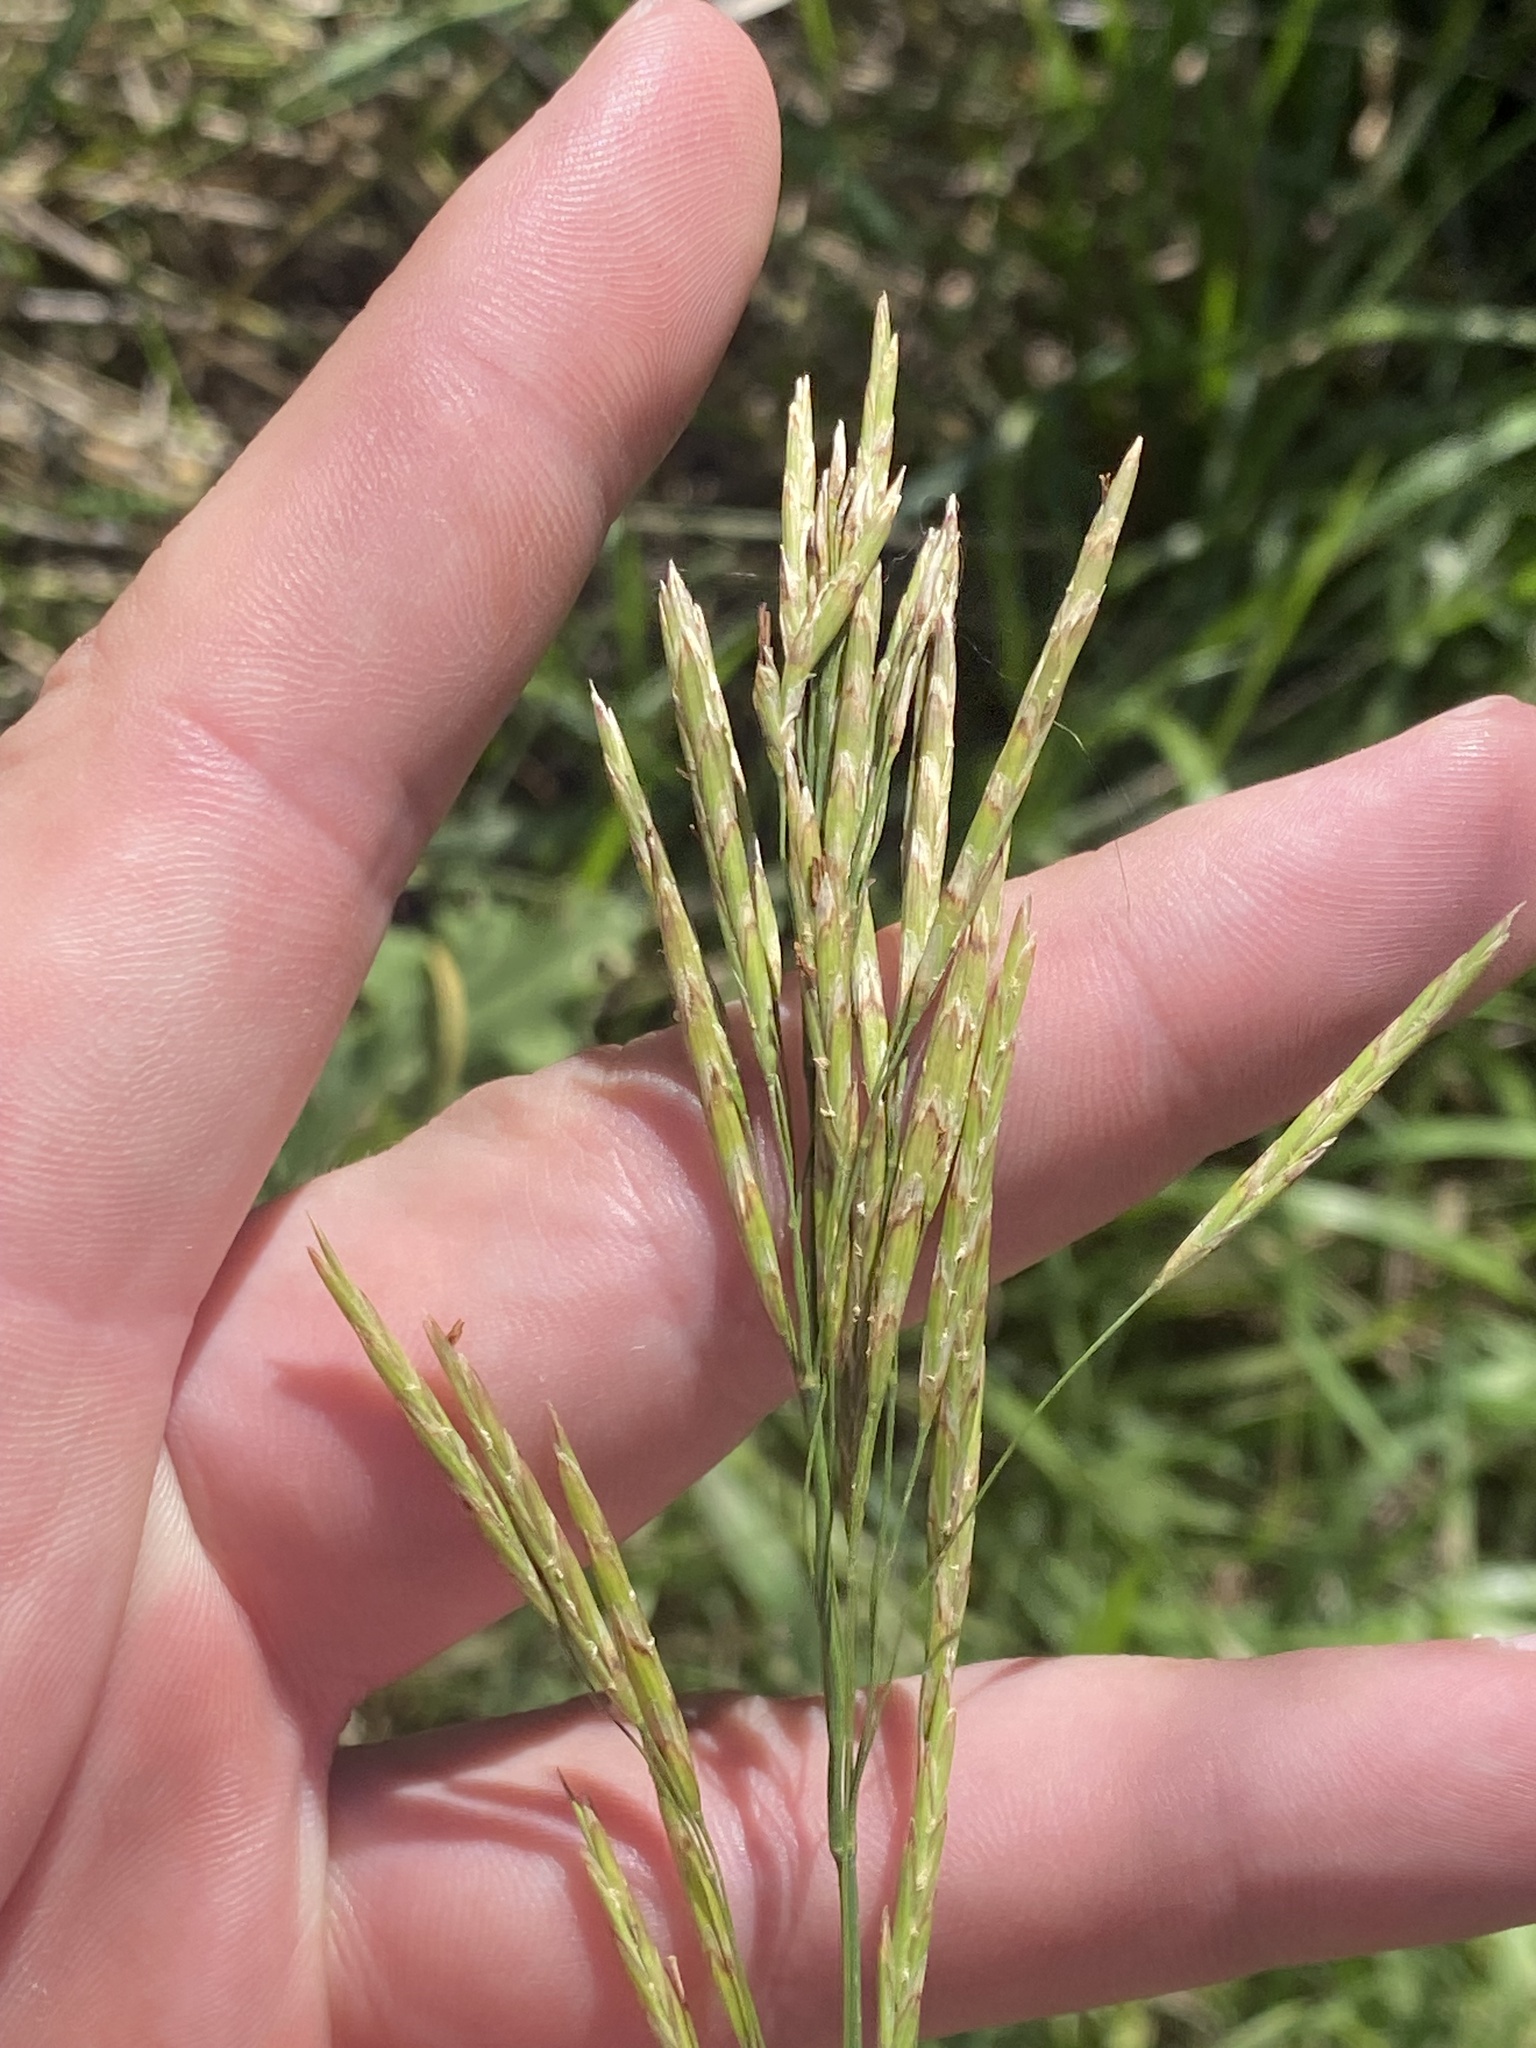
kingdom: Plantae
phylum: Tracheophyta
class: Liliopsida
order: Poales
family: Poaceae
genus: Bromus
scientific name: Bromus inermis
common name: Smooth brome
